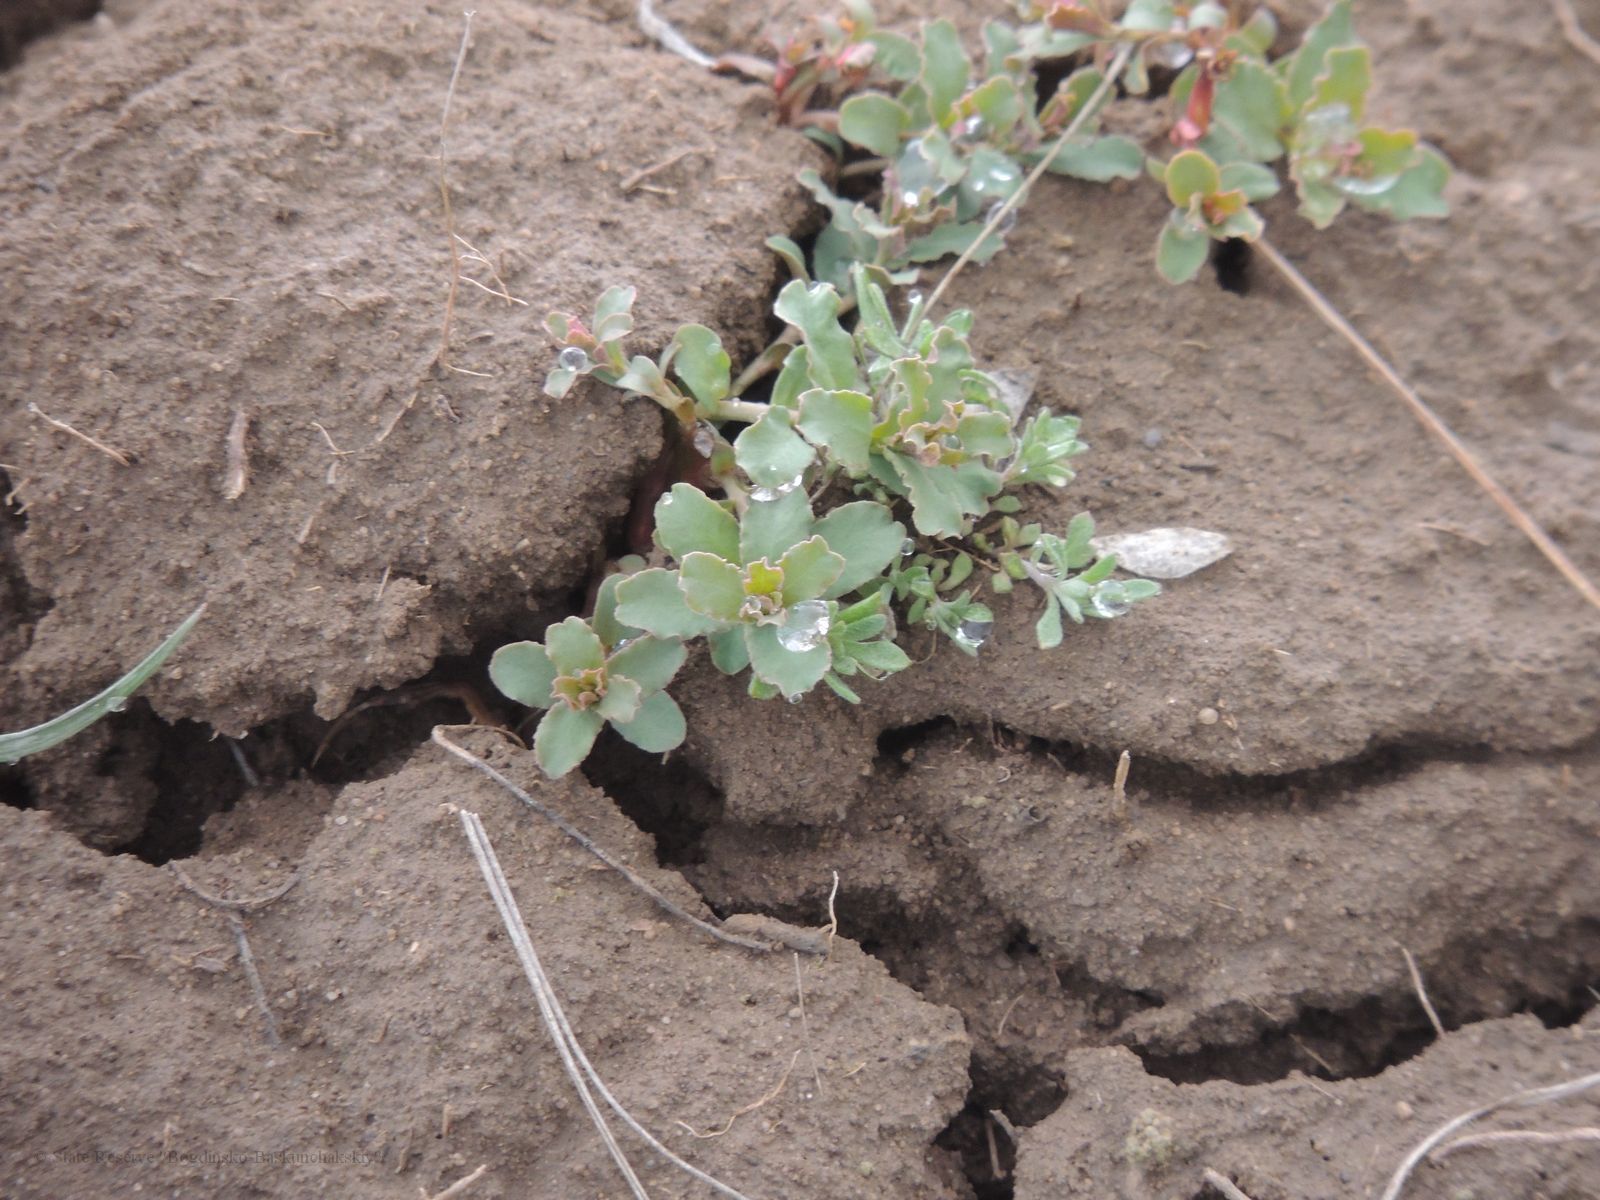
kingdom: Plantae
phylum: Tracheophyta
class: Magnoliopsida
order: Malpighiales
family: Euphorbiaceae
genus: Euphorbia
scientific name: Euphorbia undulata
